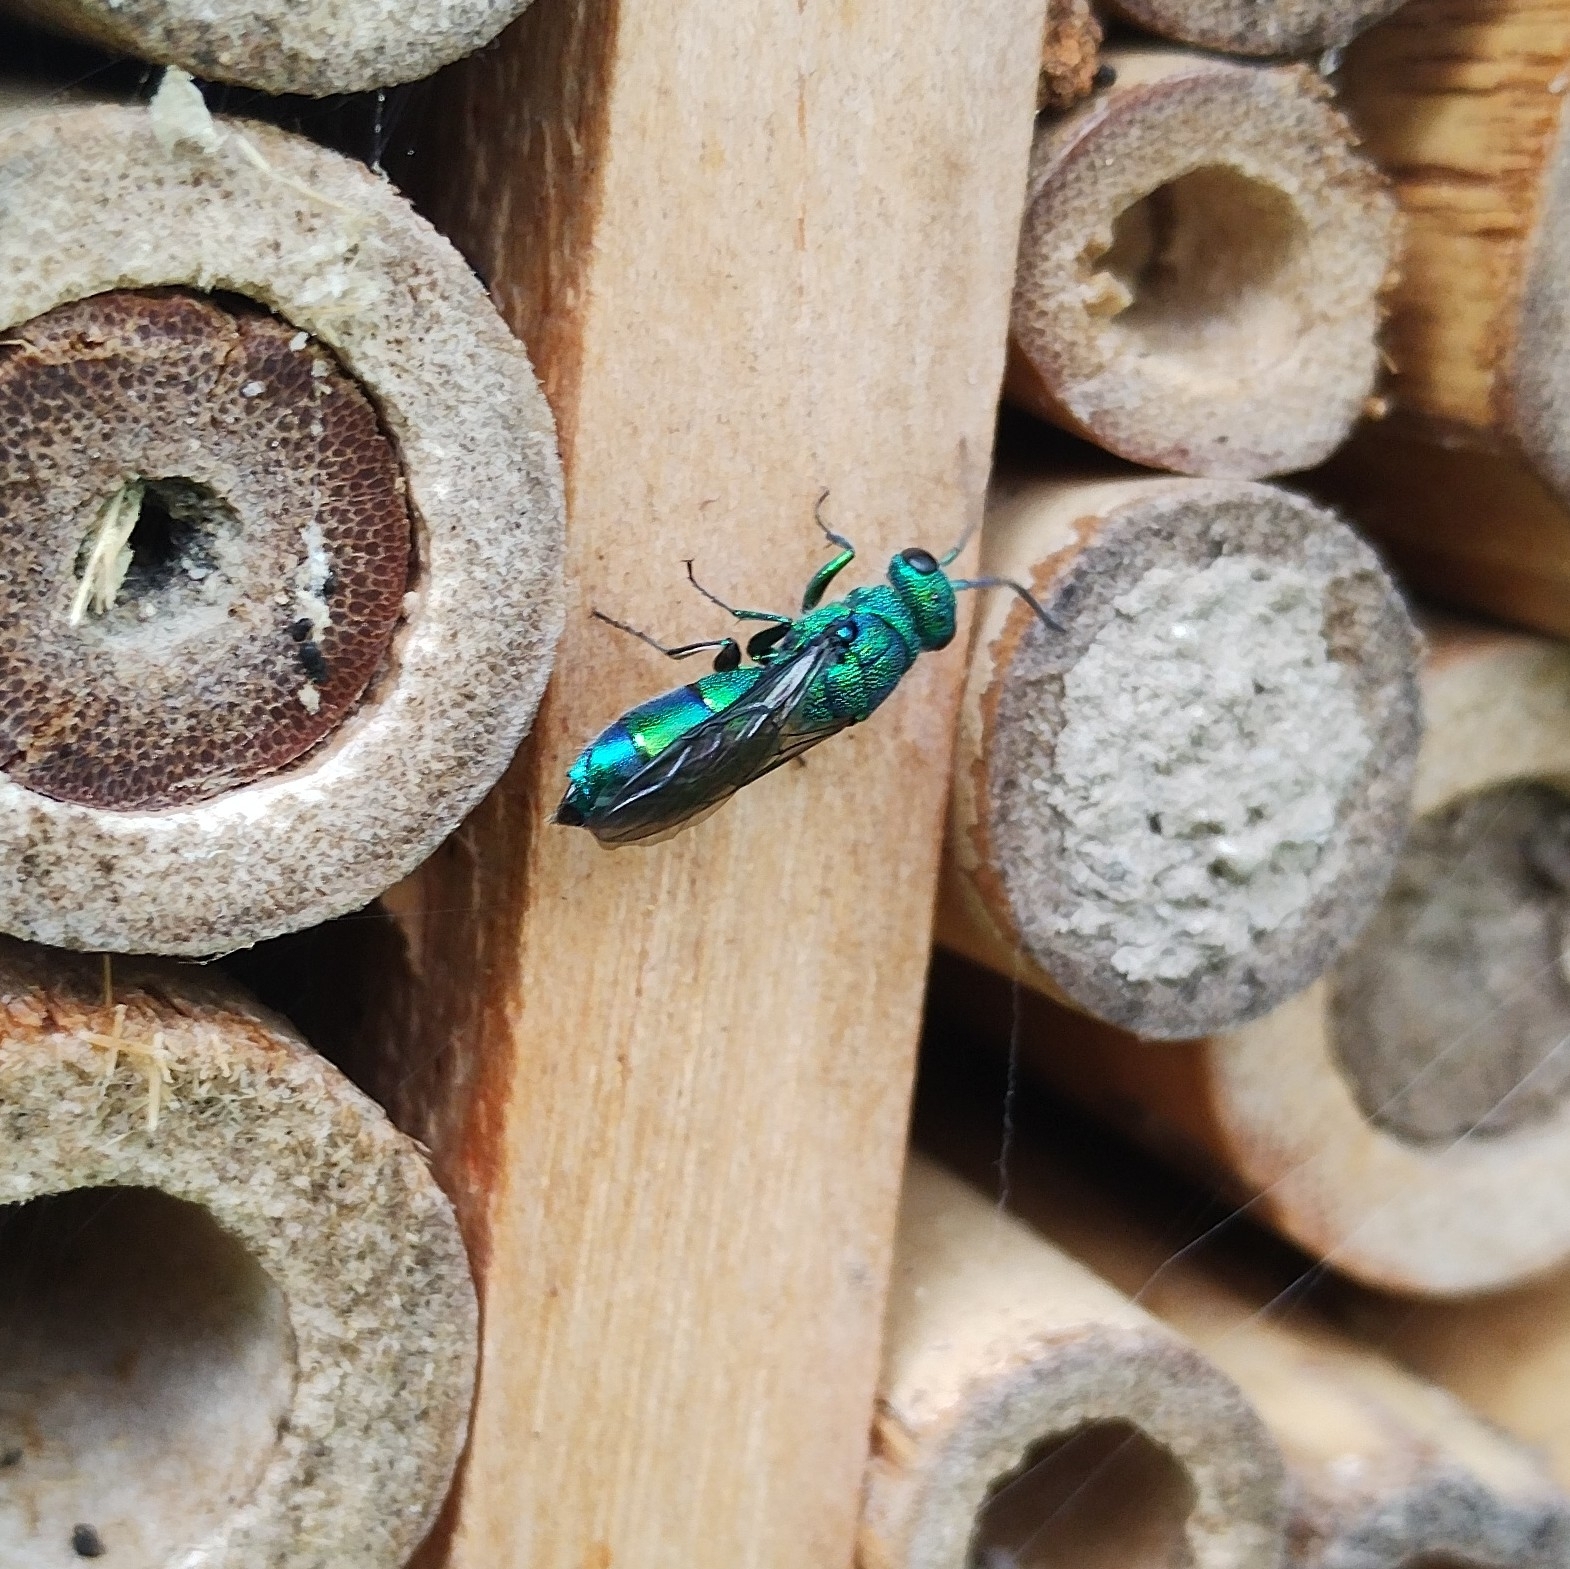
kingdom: Animalia
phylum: Arthropoda
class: Insecta
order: Hymenoptera
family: Chrysididae
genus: Chrysis
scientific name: Chrysis iris
